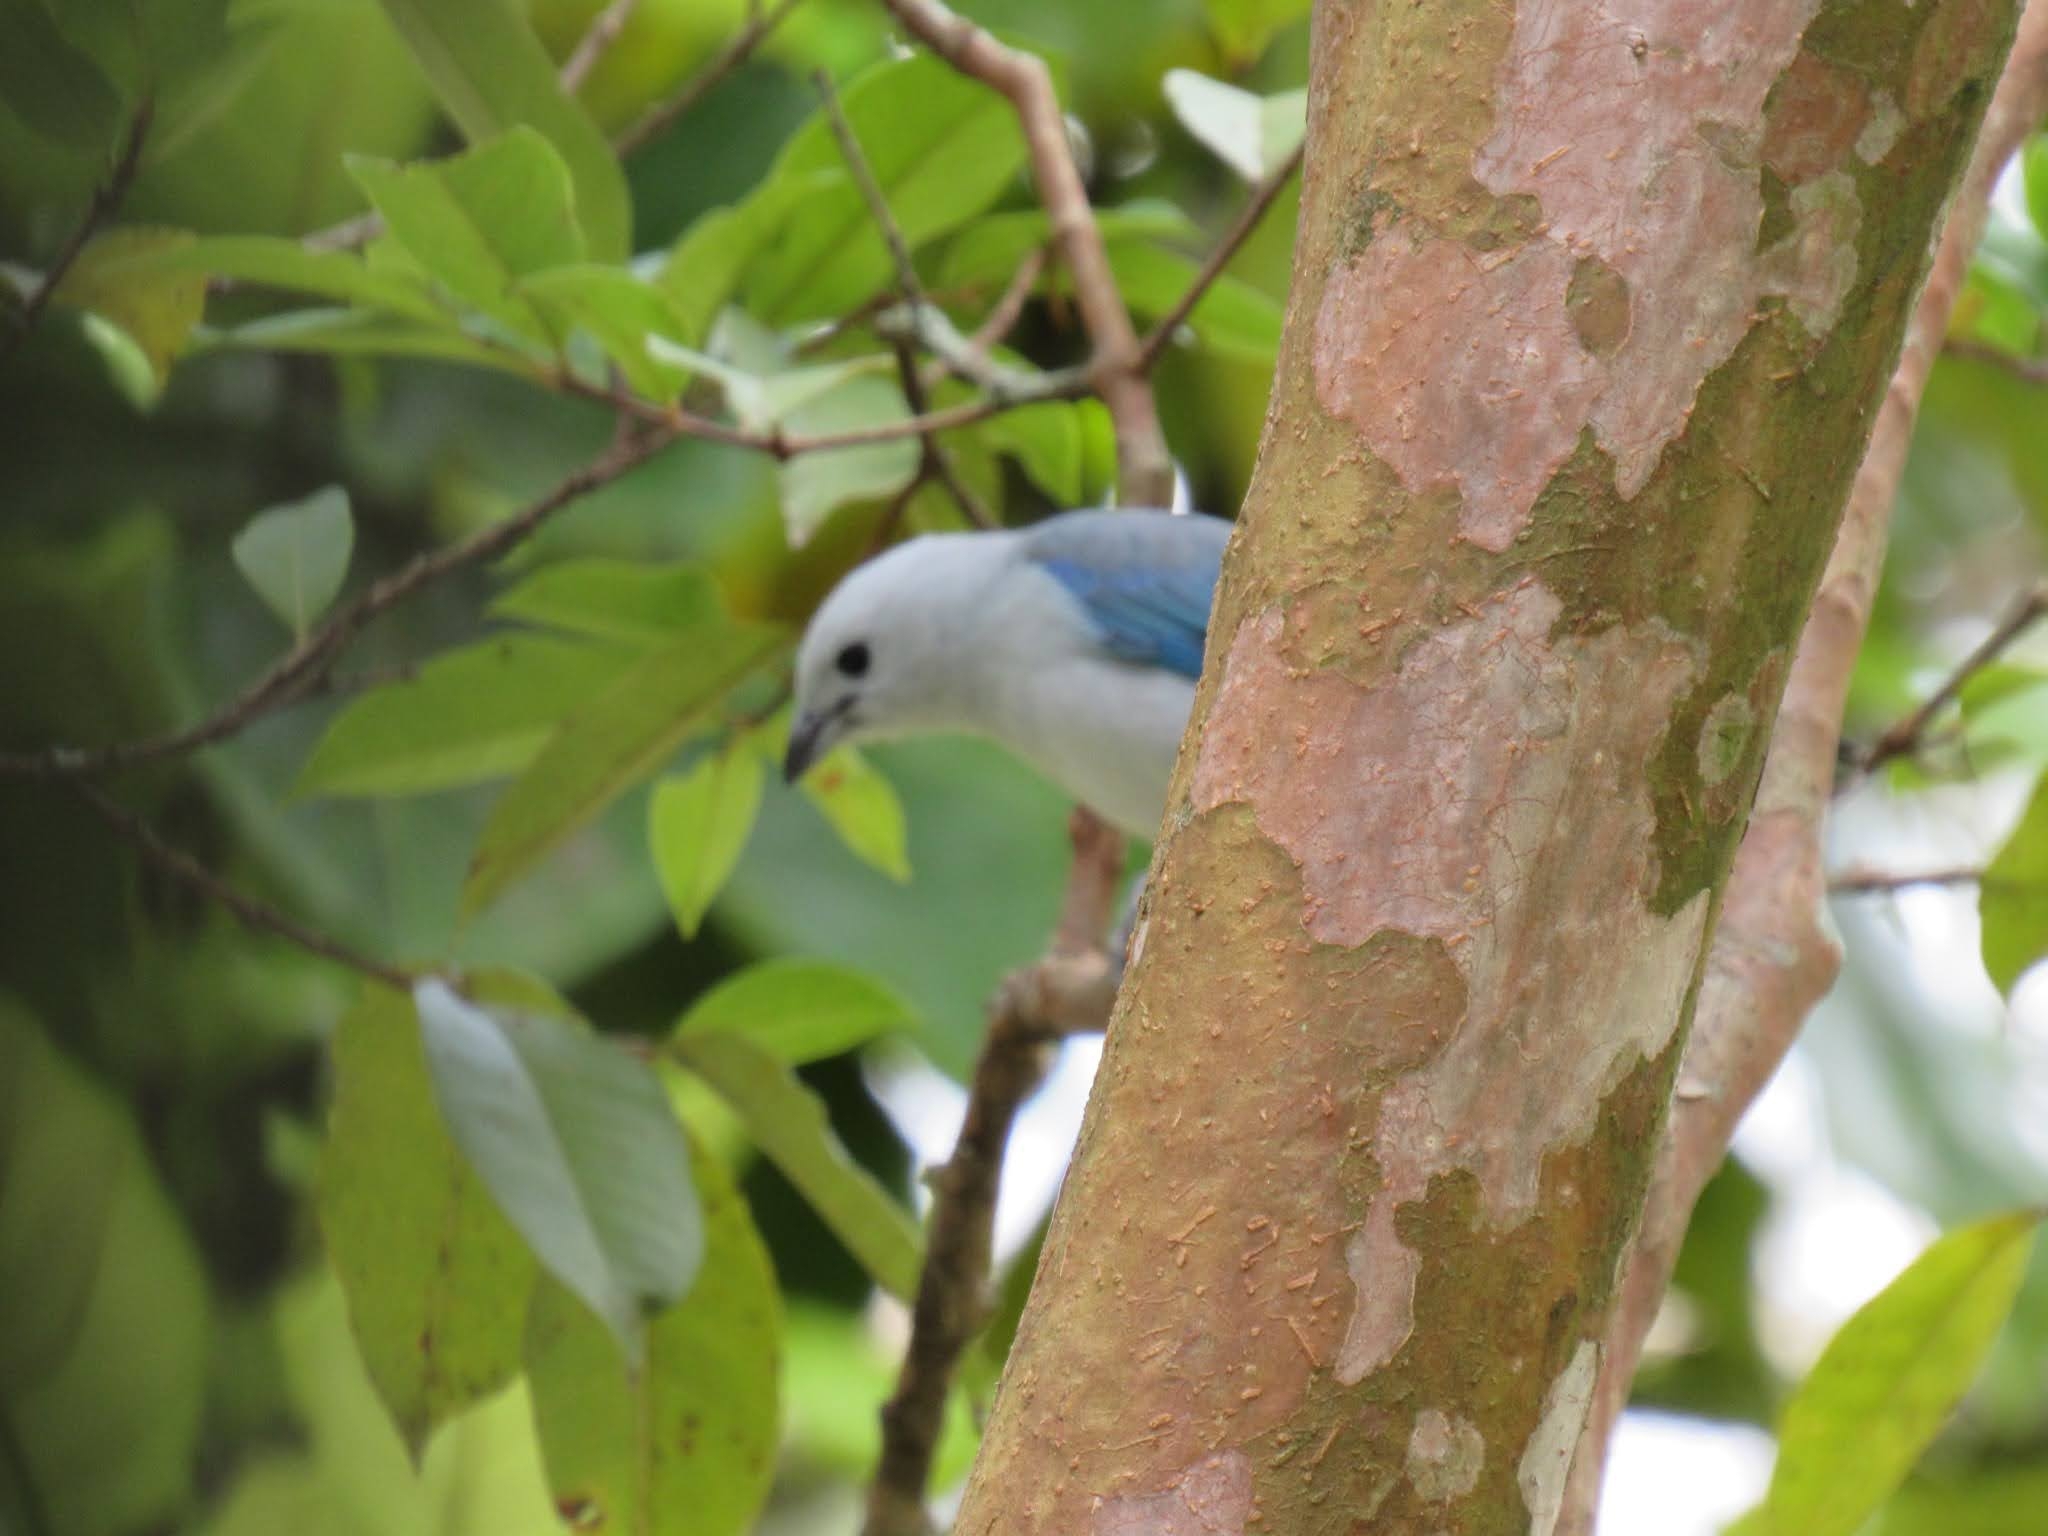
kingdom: Animalia
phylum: Chordata
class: Aves
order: Passeriformes
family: Thraupidae
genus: Thraupis
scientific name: Thraupis episcopus
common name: Blue-grey tanager
